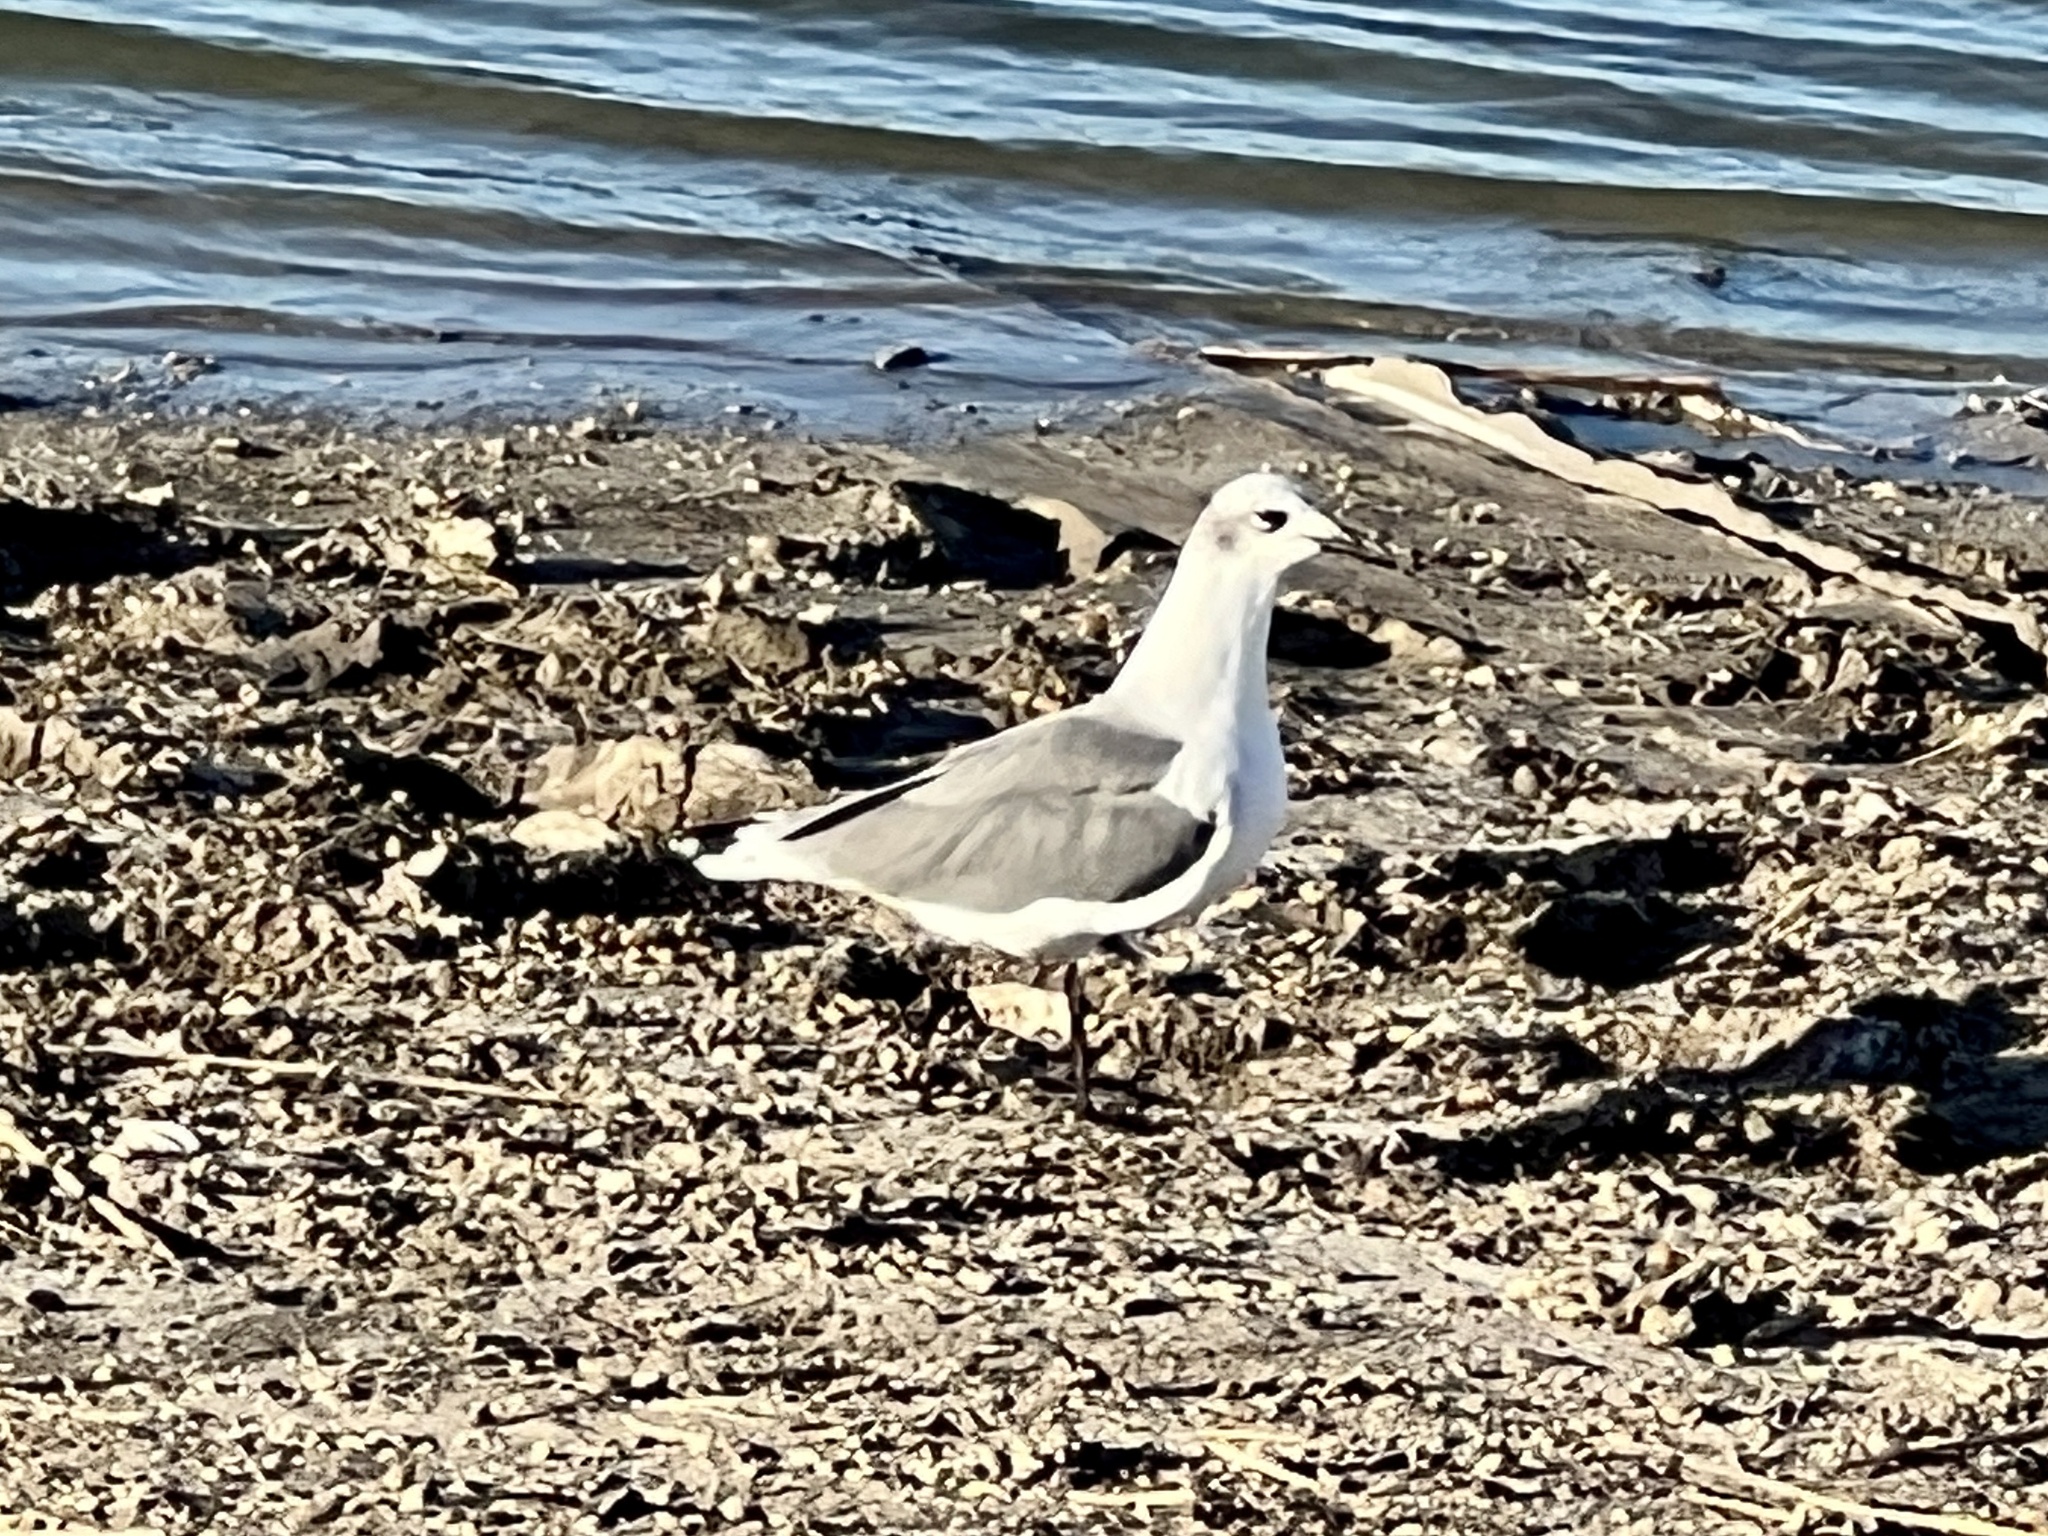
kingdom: Animalia
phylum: Chordata
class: Aves
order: Charadriiformes
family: Laridae
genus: Leucophaeus
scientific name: Leucophaeus atricilla
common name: Laughing gull
